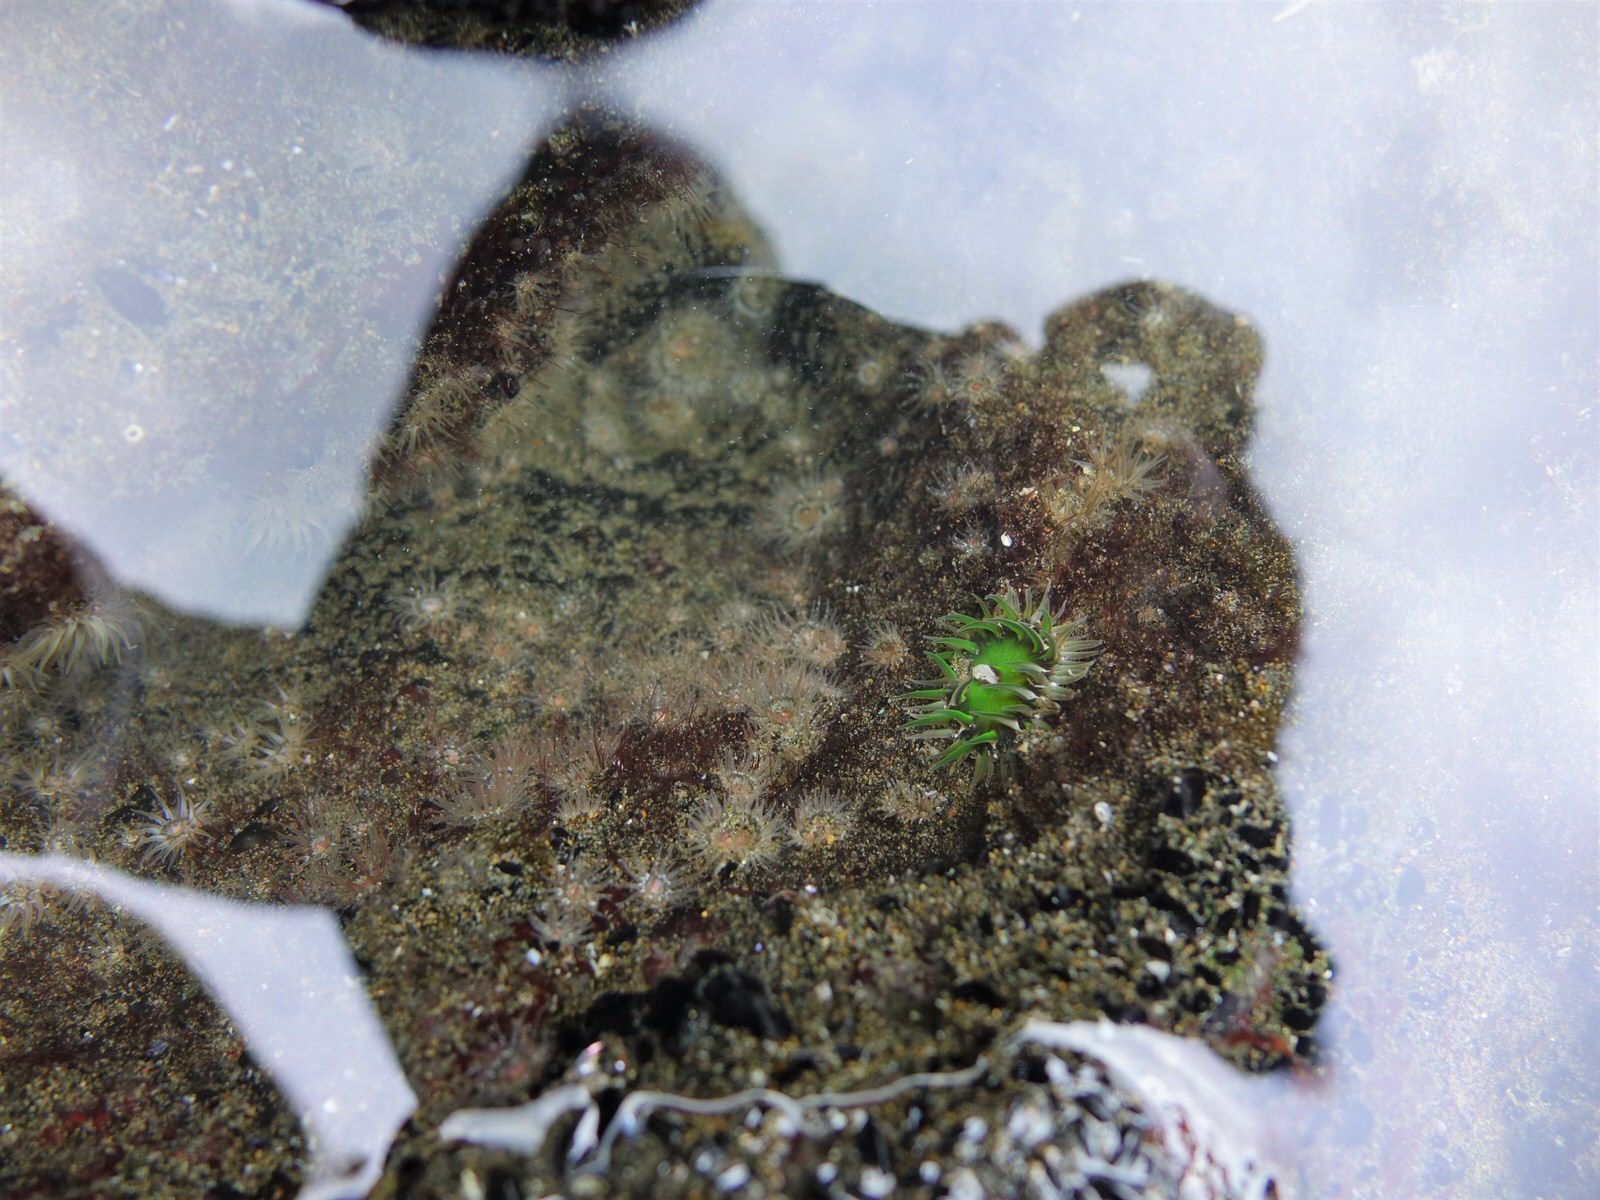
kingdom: Animalia
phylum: Cnidaria
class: Anthozoa
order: Actiniaria
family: Actiniidae
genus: Oulactis
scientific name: Oulactis magna
